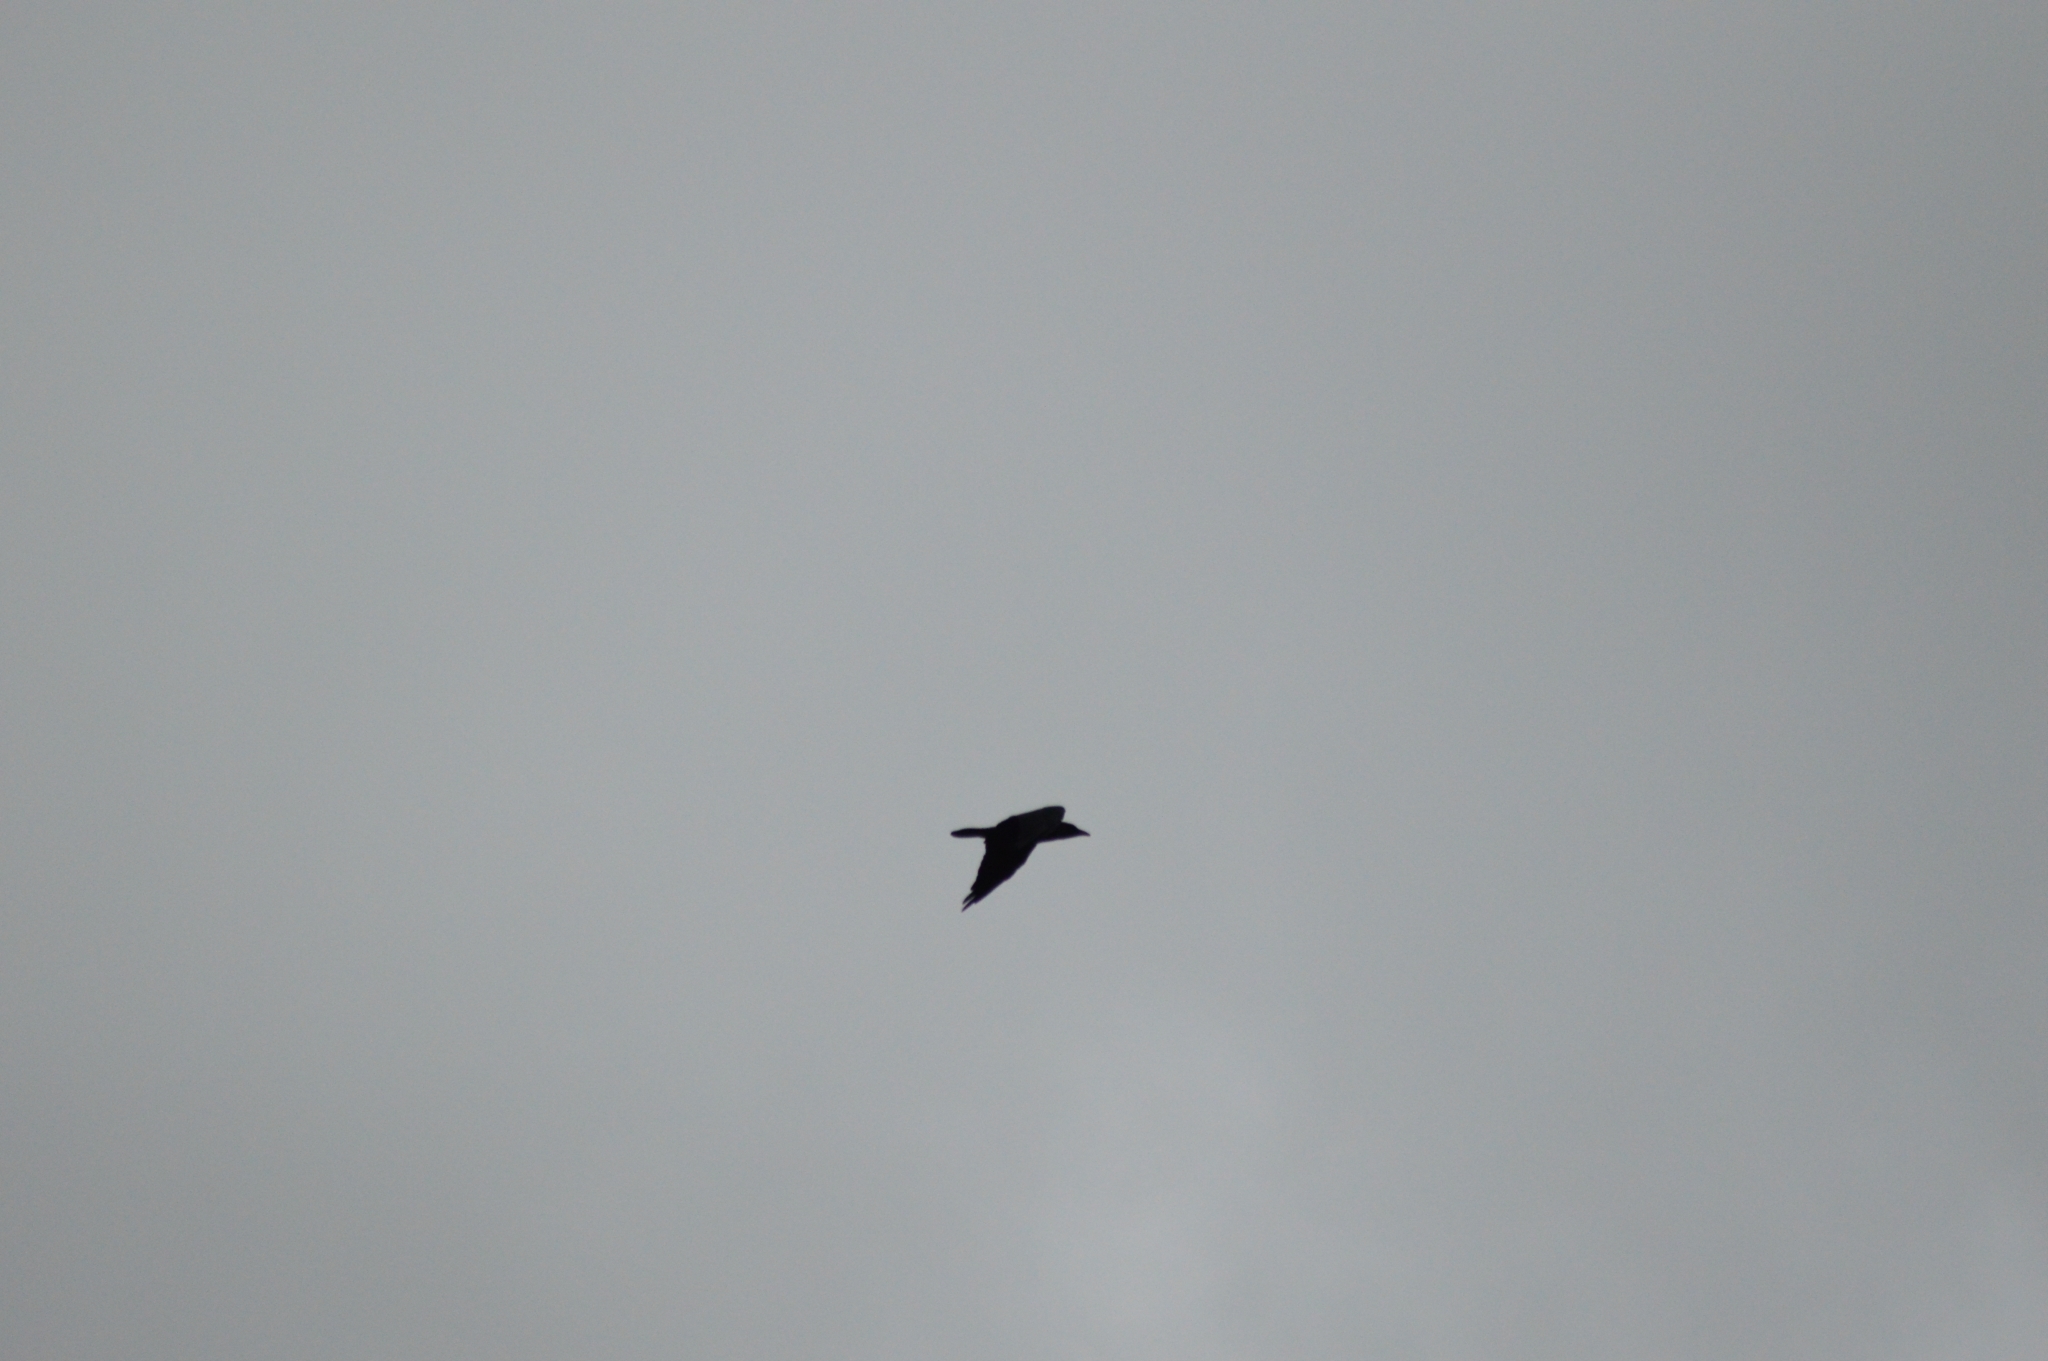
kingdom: Animalia
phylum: Chordata
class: Aves
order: Passeriformes
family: Corvidae
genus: Corvus
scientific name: Corvus corax
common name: Common raven
